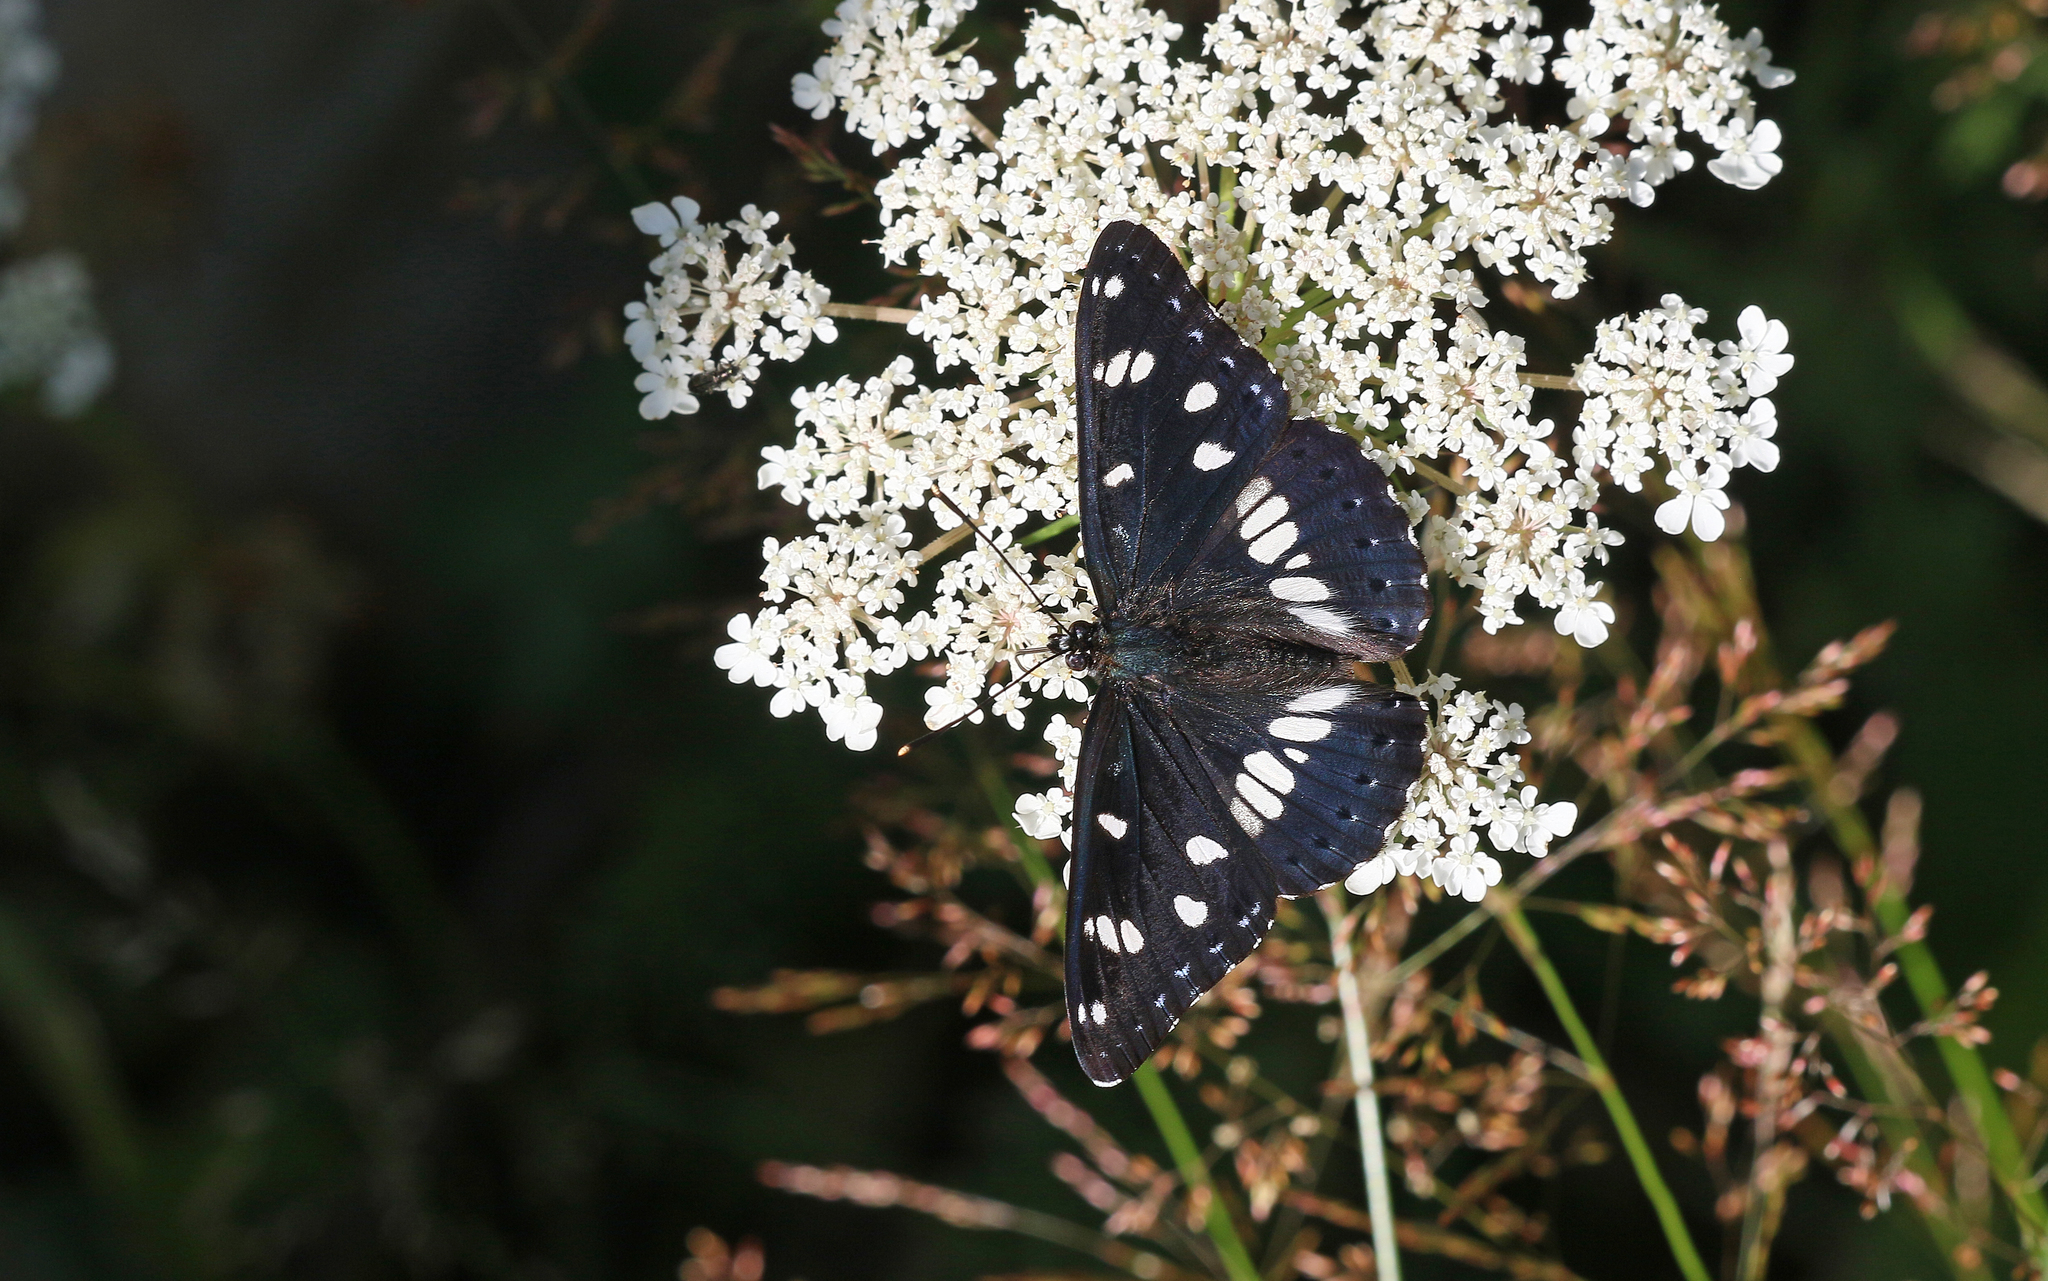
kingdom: Animalia
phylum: Arthropoda
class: Insecta
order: Lepidoptera
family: Nymphalidae
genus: Limenitis
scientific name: Limenitis reducta
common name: Southern white admiral
